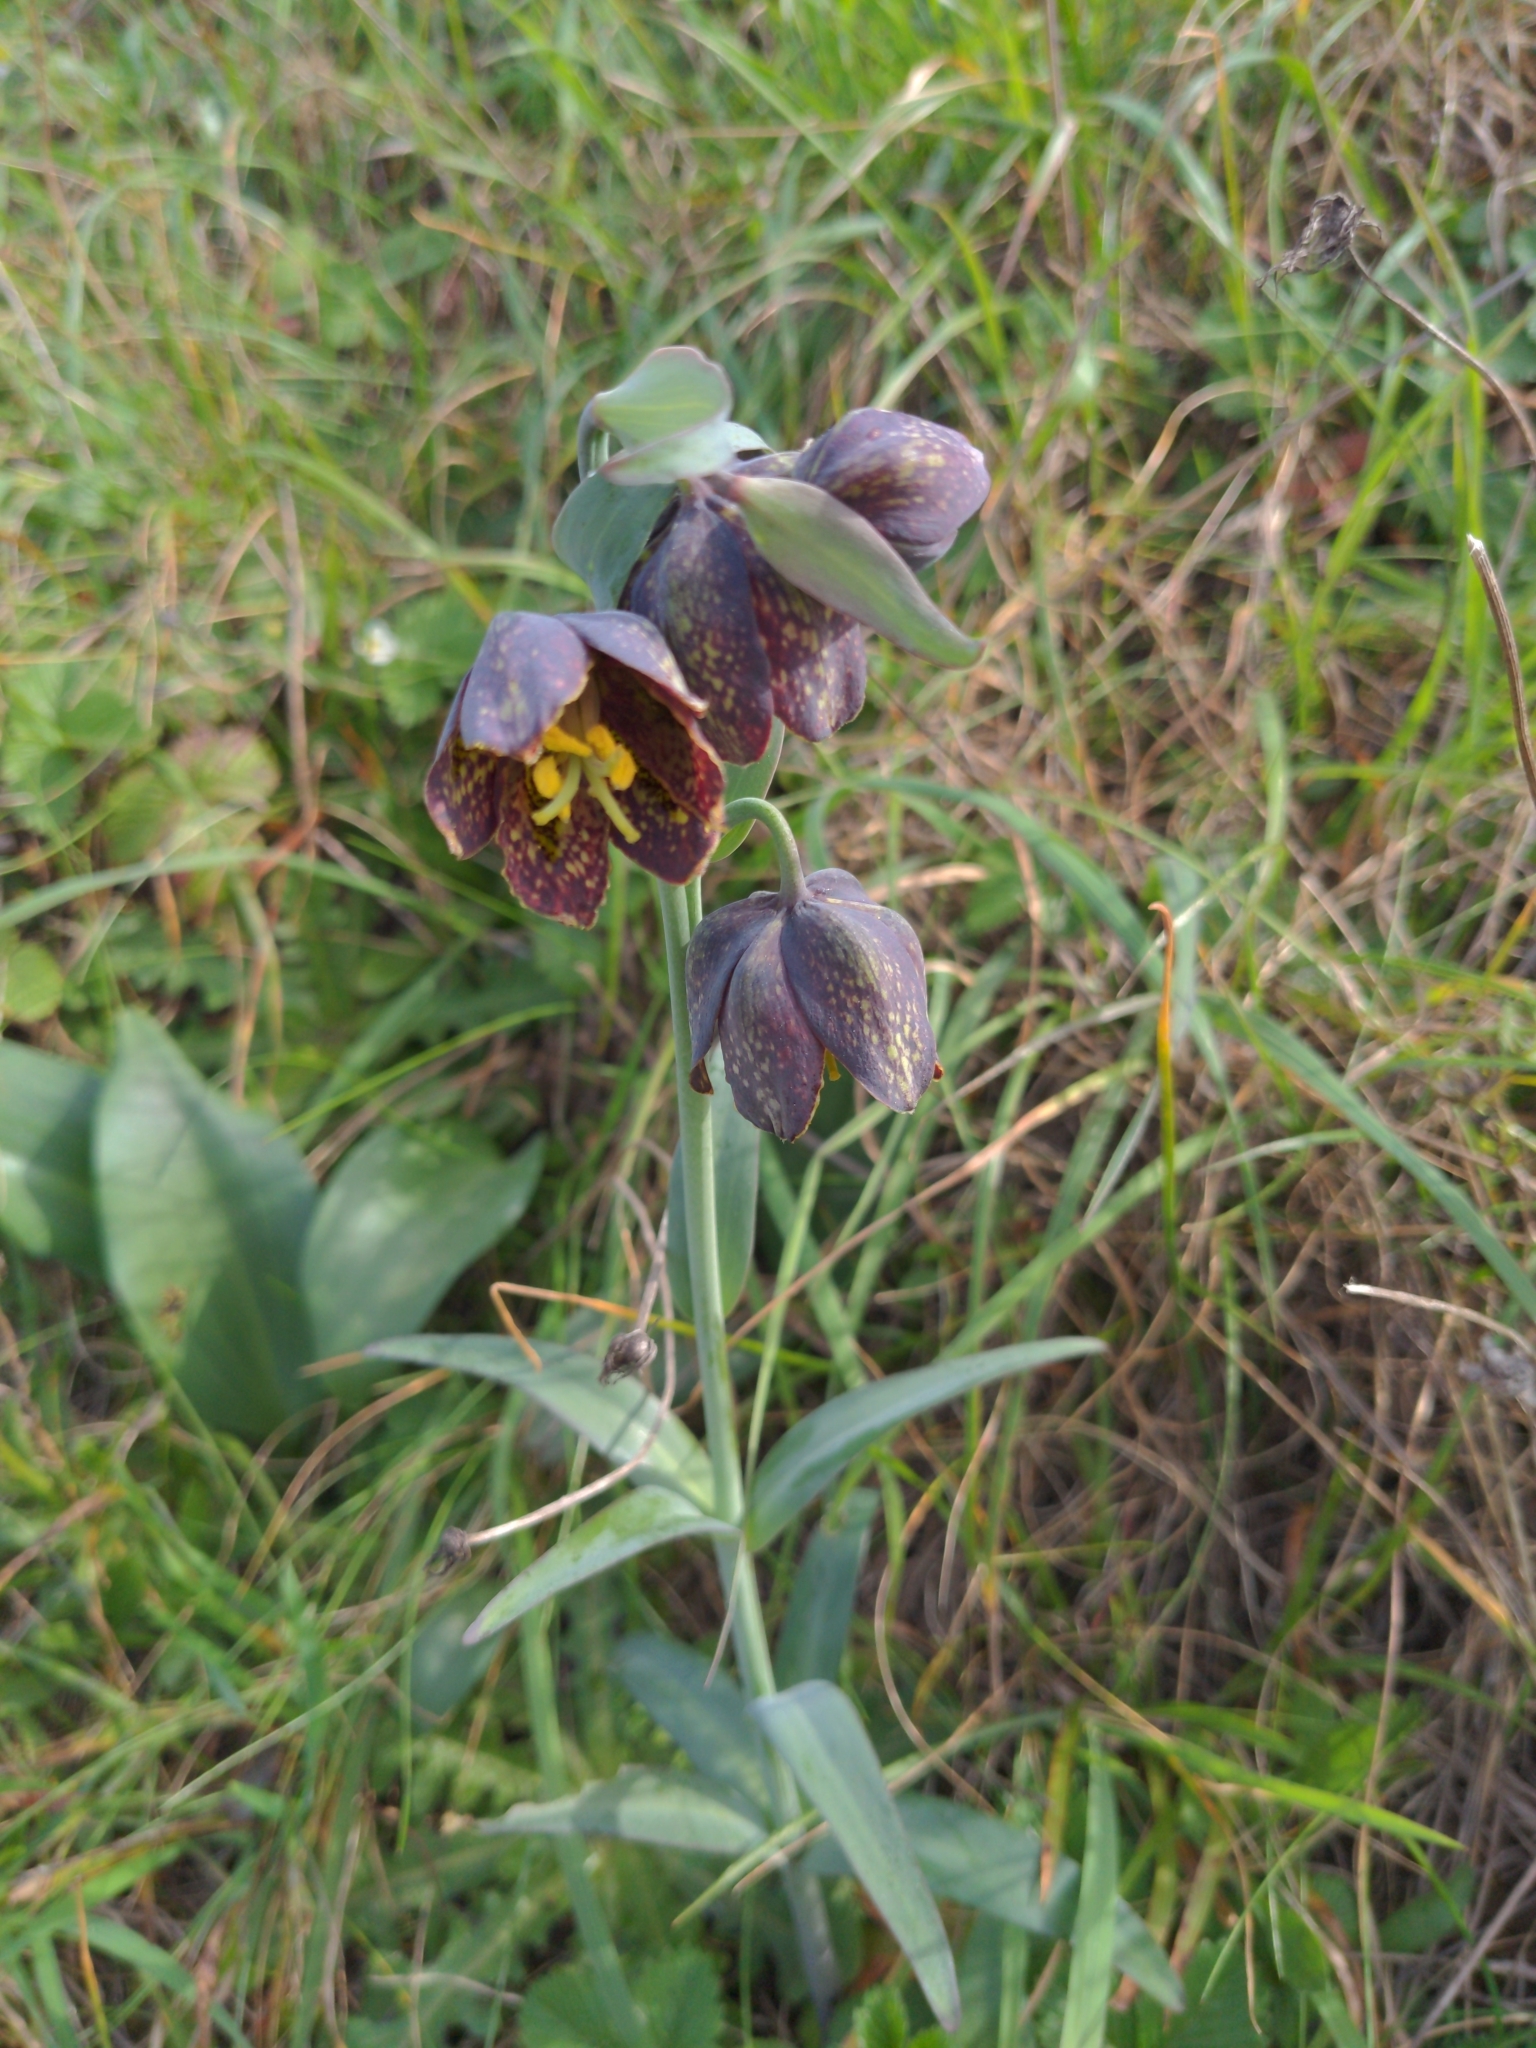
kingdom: Plantae
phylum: Tracheophyta
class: Liliopsida
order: Liliales
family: Liliaceae
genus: Fritillaria
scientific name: Fritillaria affinis
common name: Ojai fritillary
